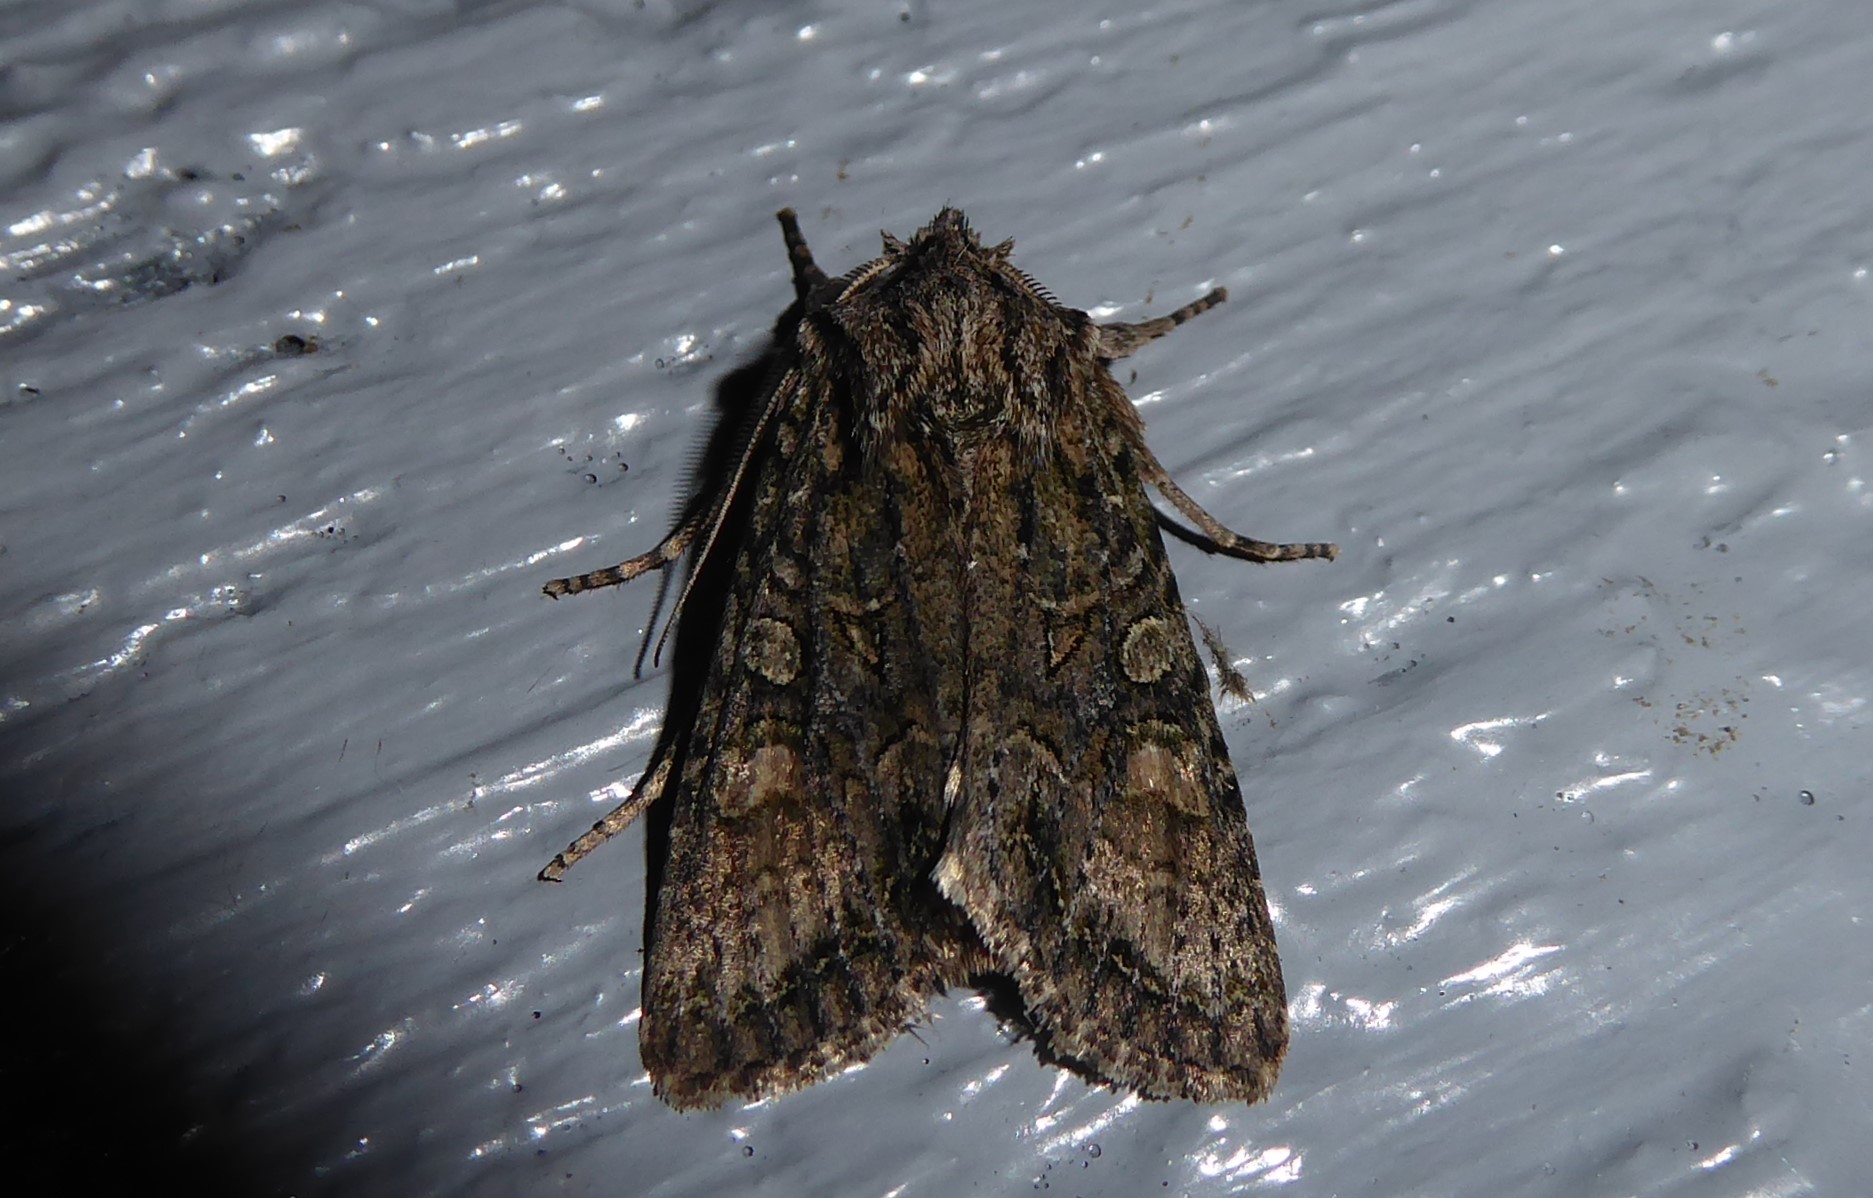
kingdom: Animalia
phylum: Arthropoda
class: Insecta
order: Lepidoptera
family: Noctuidae
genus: Ichneutica
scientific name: Ichneutica mutans
